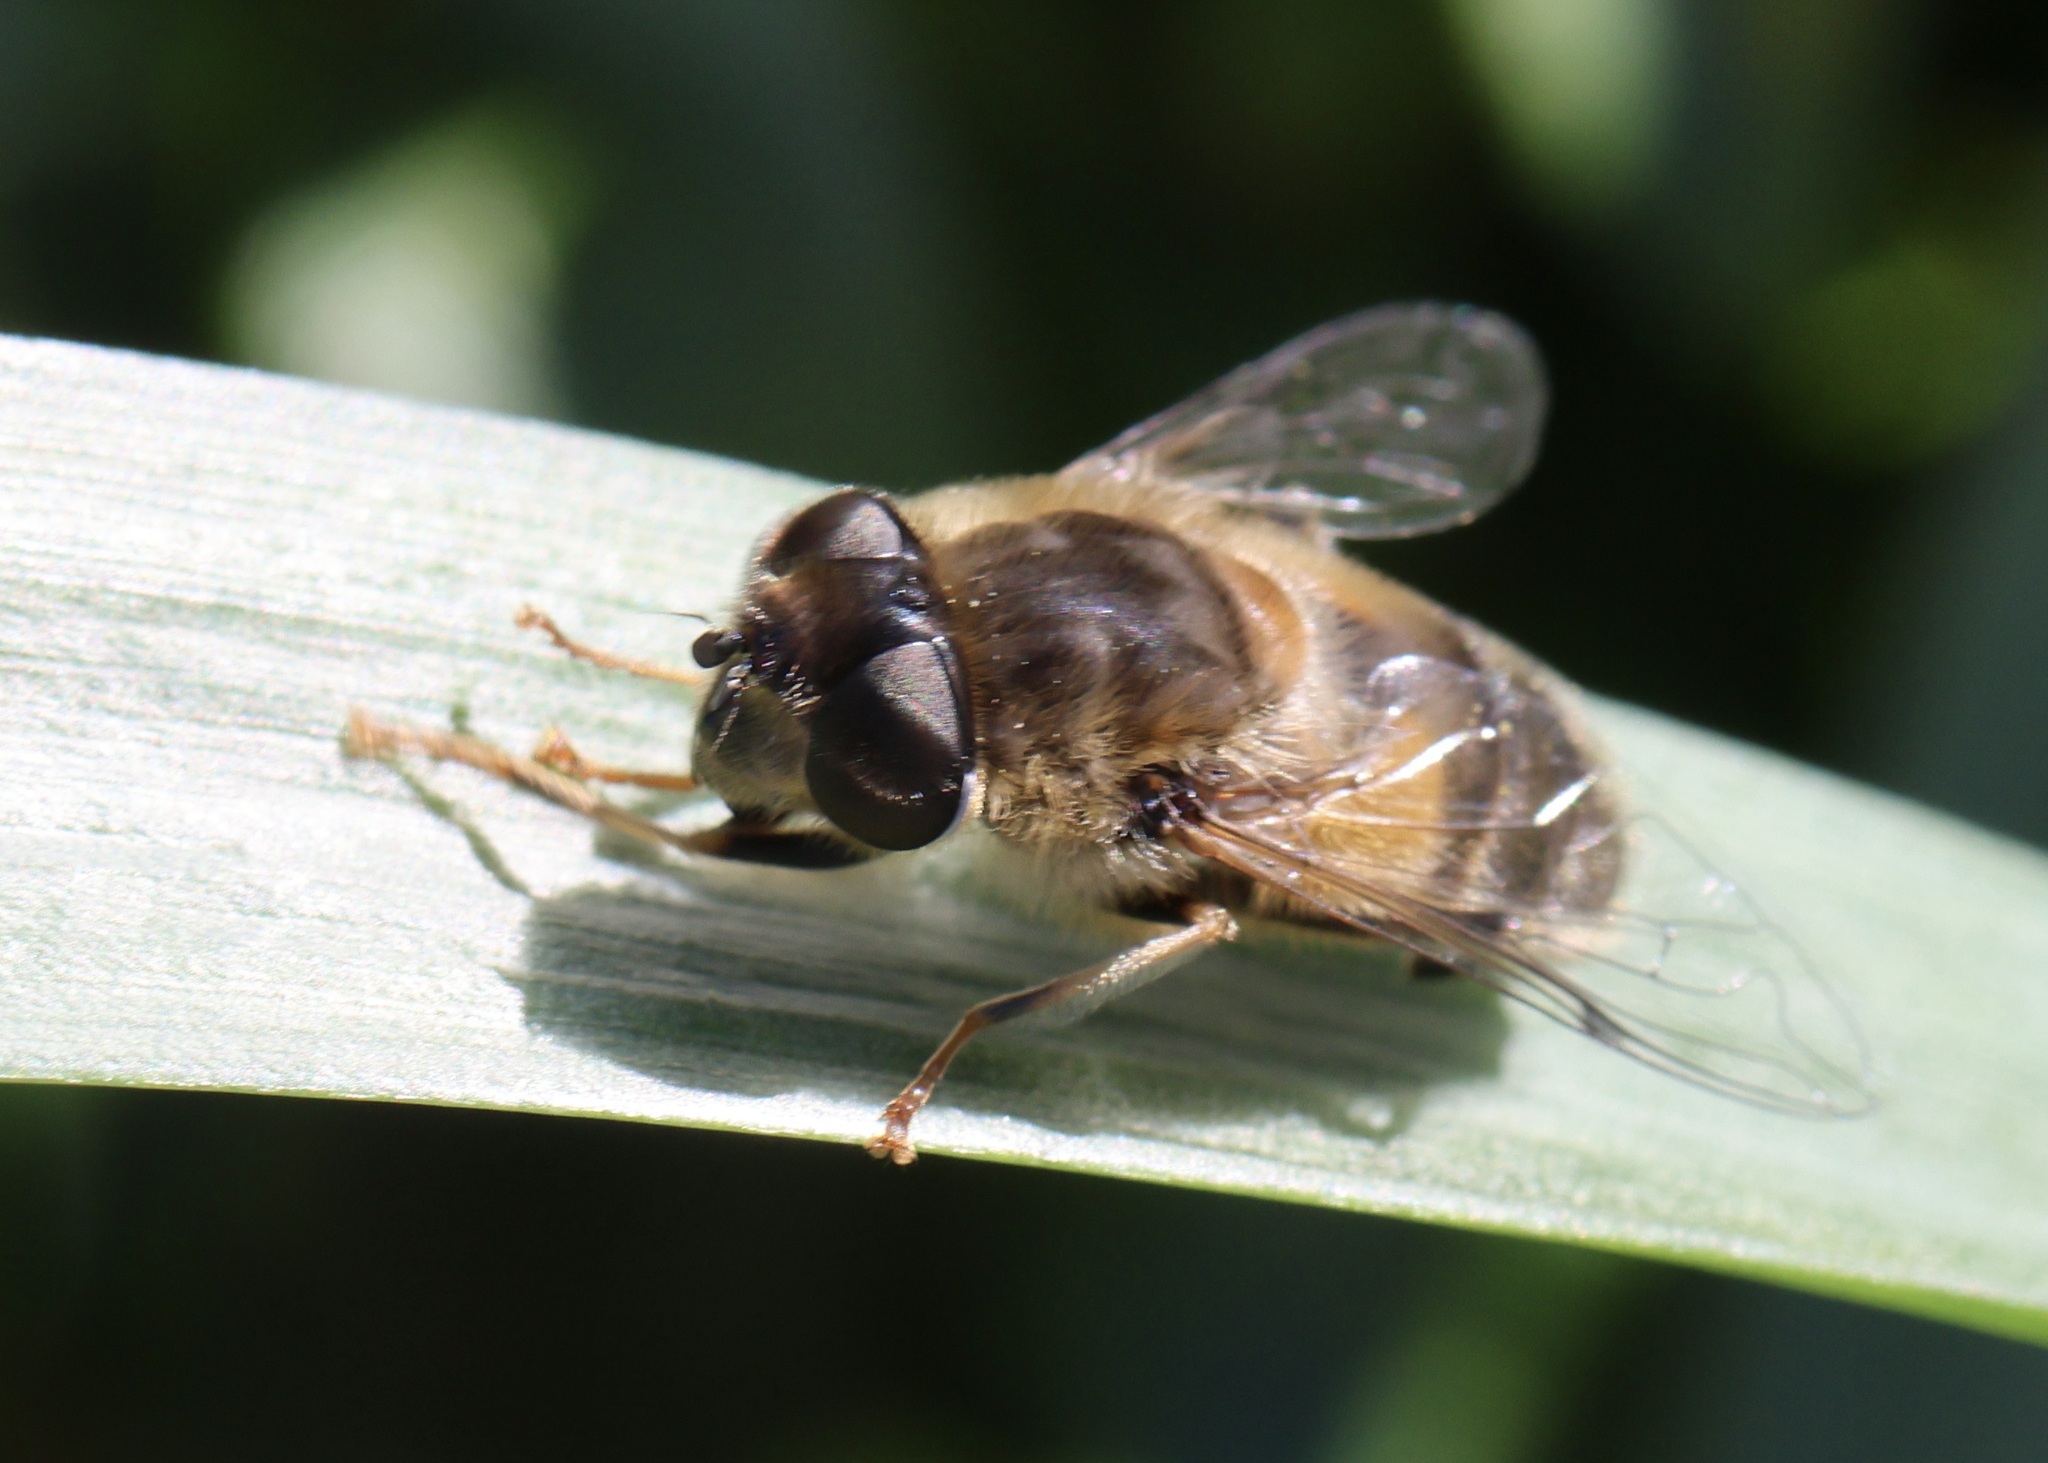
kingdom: Animalia
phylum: Arthropoda
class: Insecta
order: Diptera
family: Syrphidae
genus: Eristalis
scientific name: Eristalis pertinax
